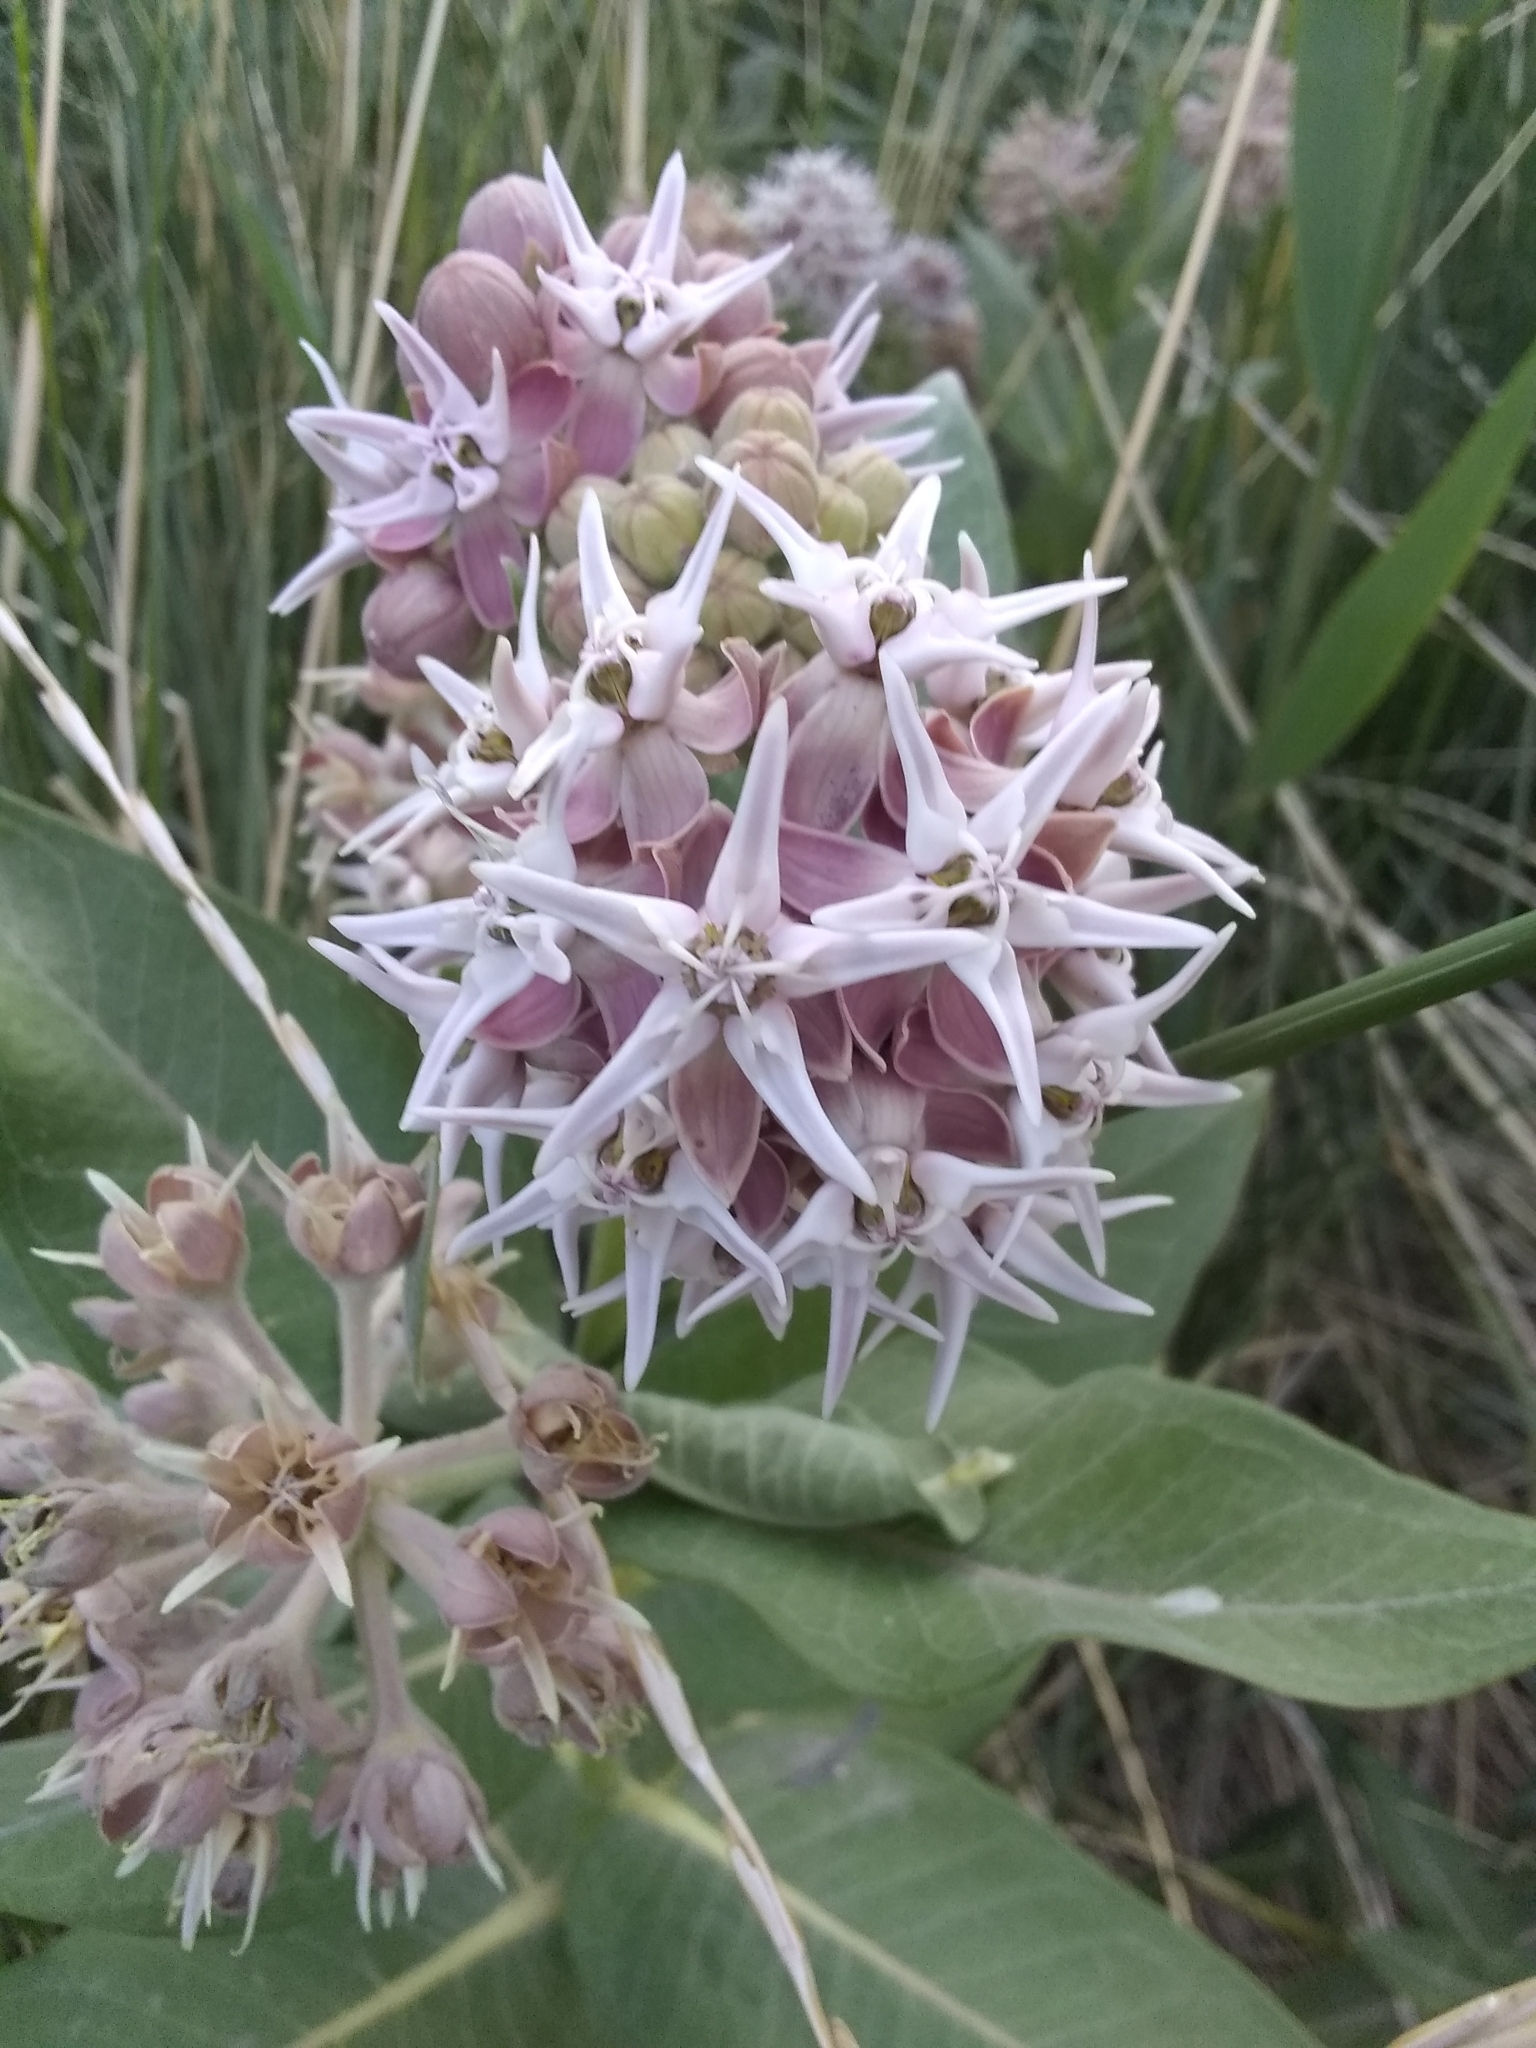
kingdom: Plantae
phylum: Tracheophyta
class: Magnoliopsida
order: Gentianales
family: Apocynaceae
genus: Asclepias
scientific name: Asclepias speciosa
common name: Showy milkweed
